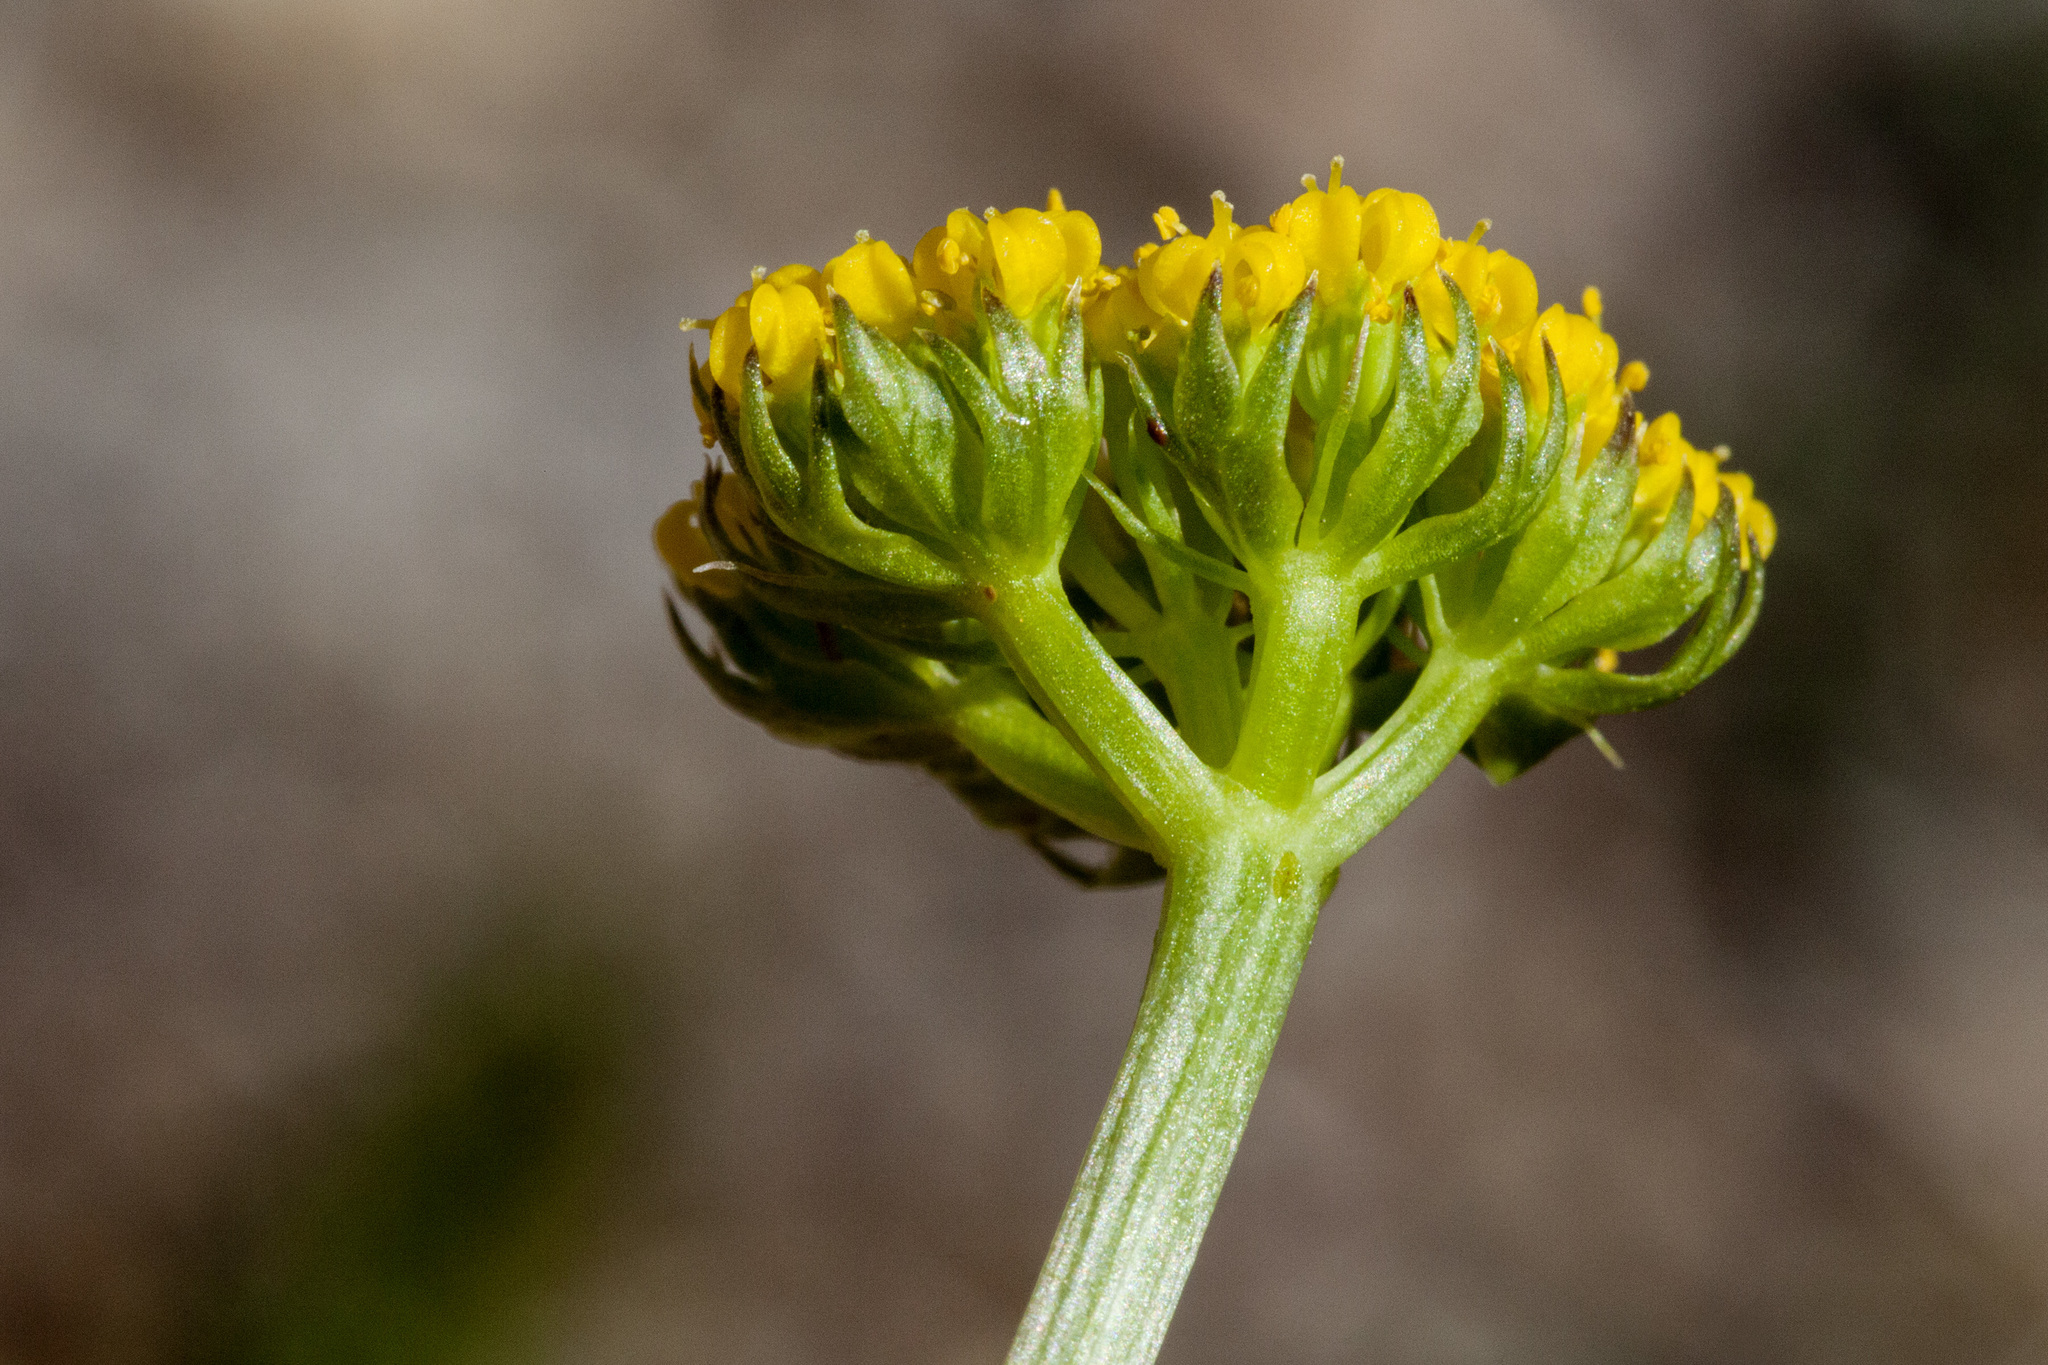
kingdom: Plantae
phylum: Tracheophyta
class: Magnoliopsida
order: Apiales
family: Apiaceae
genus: Oreoxis
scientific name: Oreoxis bakeri
